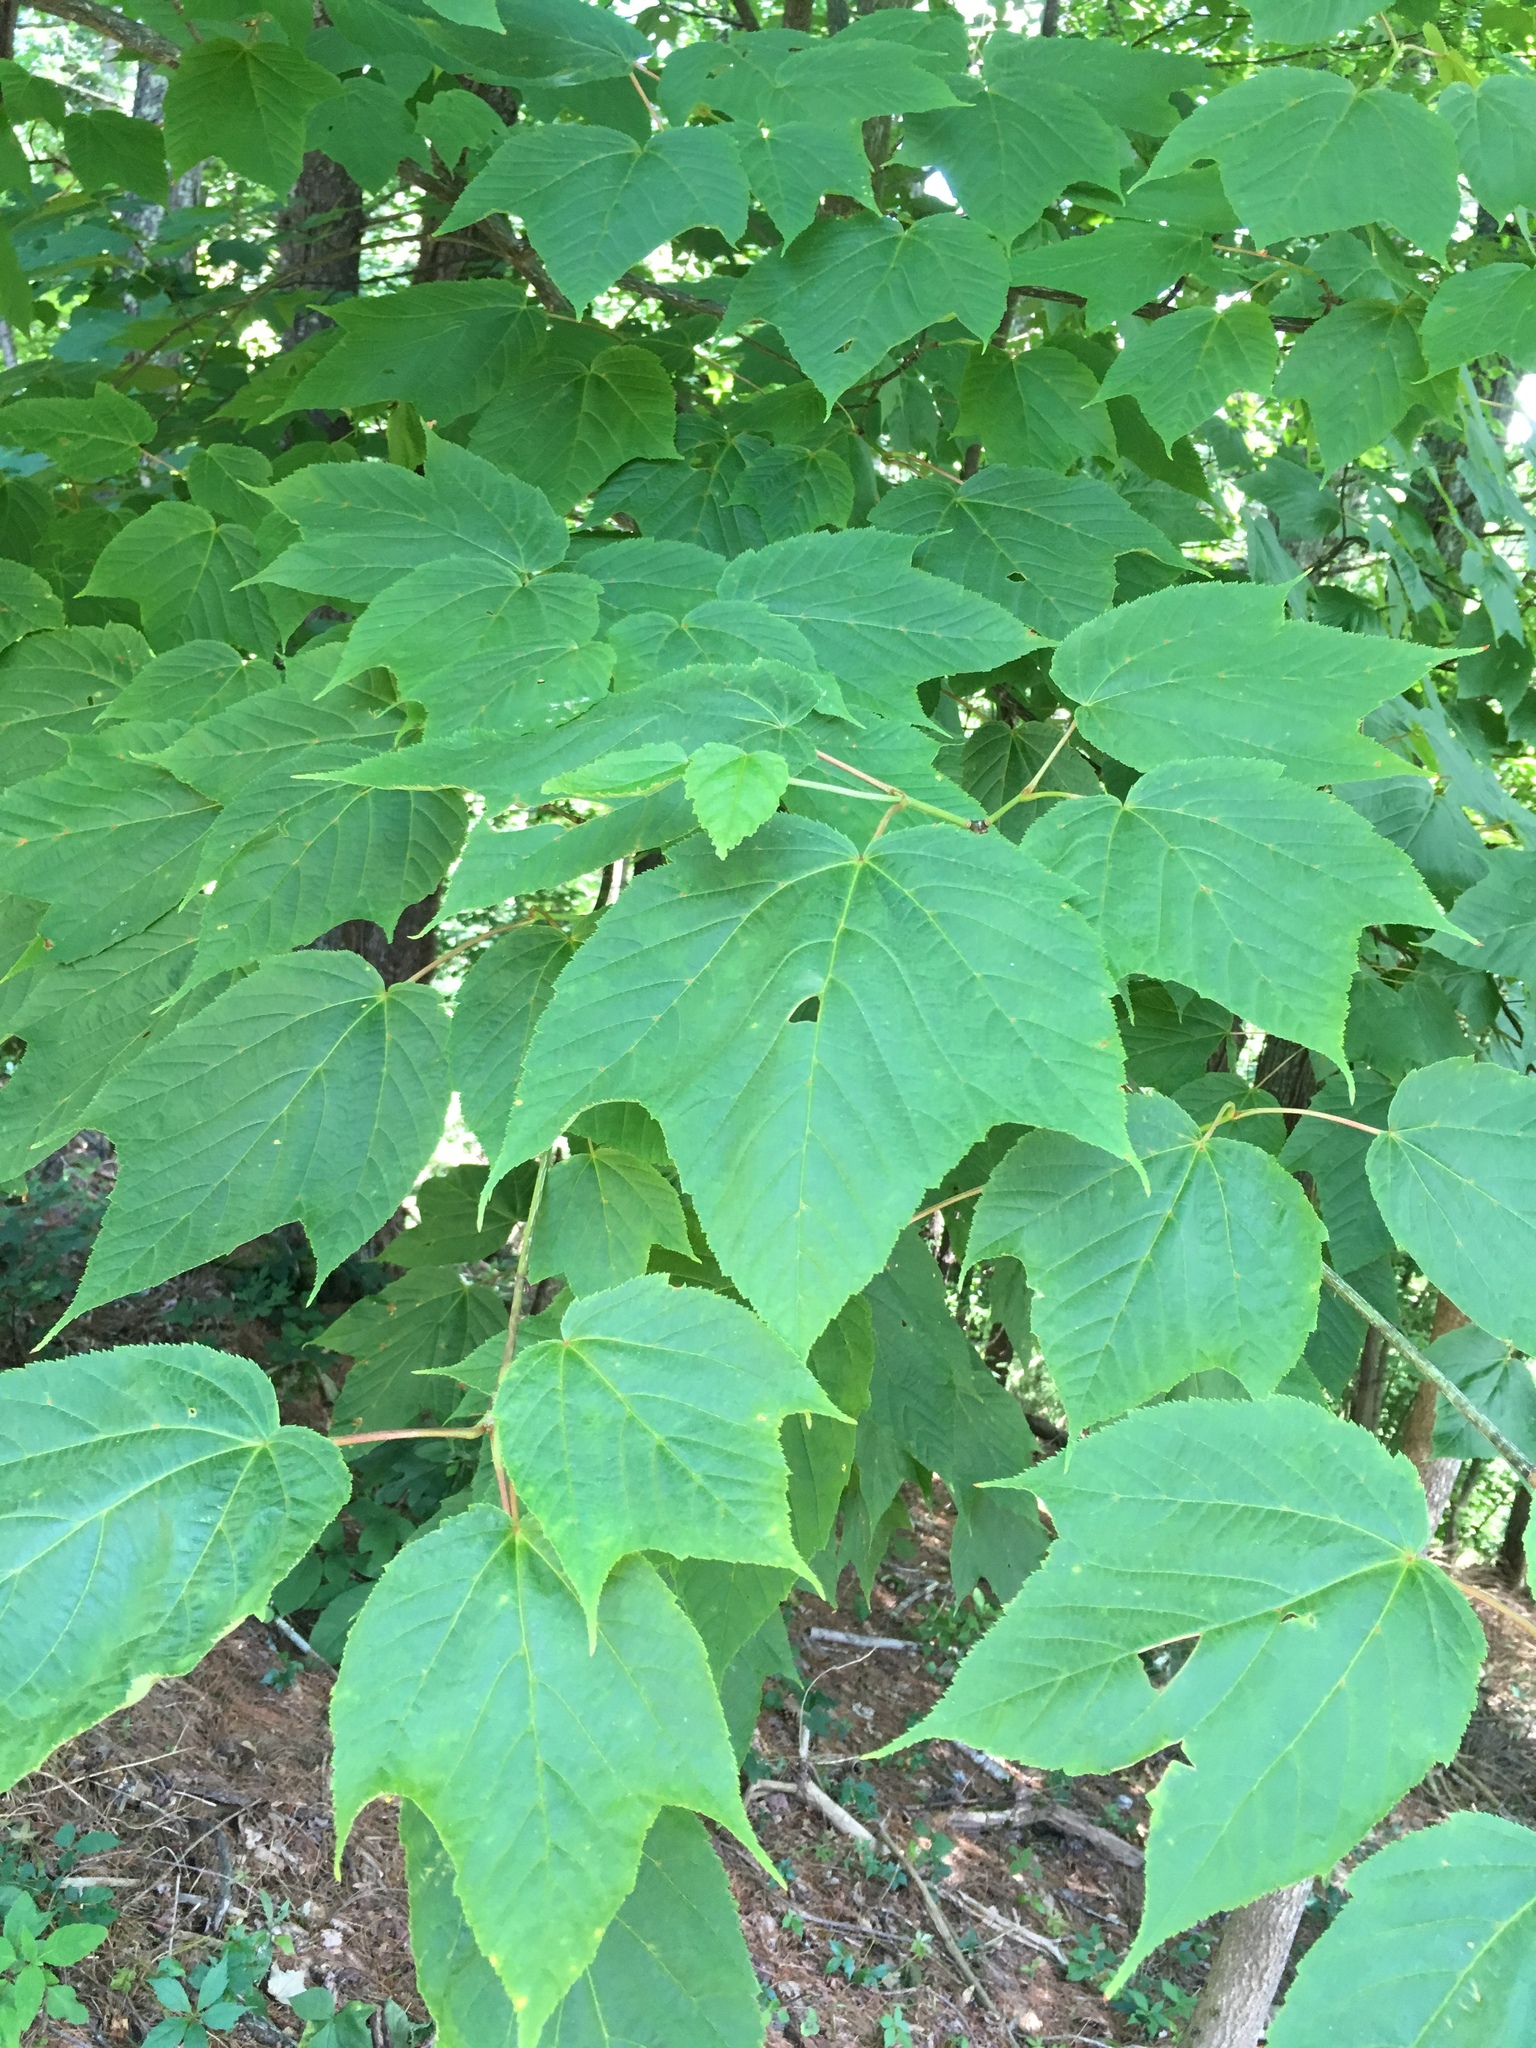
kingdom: Plantae
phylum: Tracheophyta
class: Magnoliopsida
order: Sapindales
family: Sapindaceae
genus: Acer
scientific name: Acer pensylvanicum
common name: Moosewood
